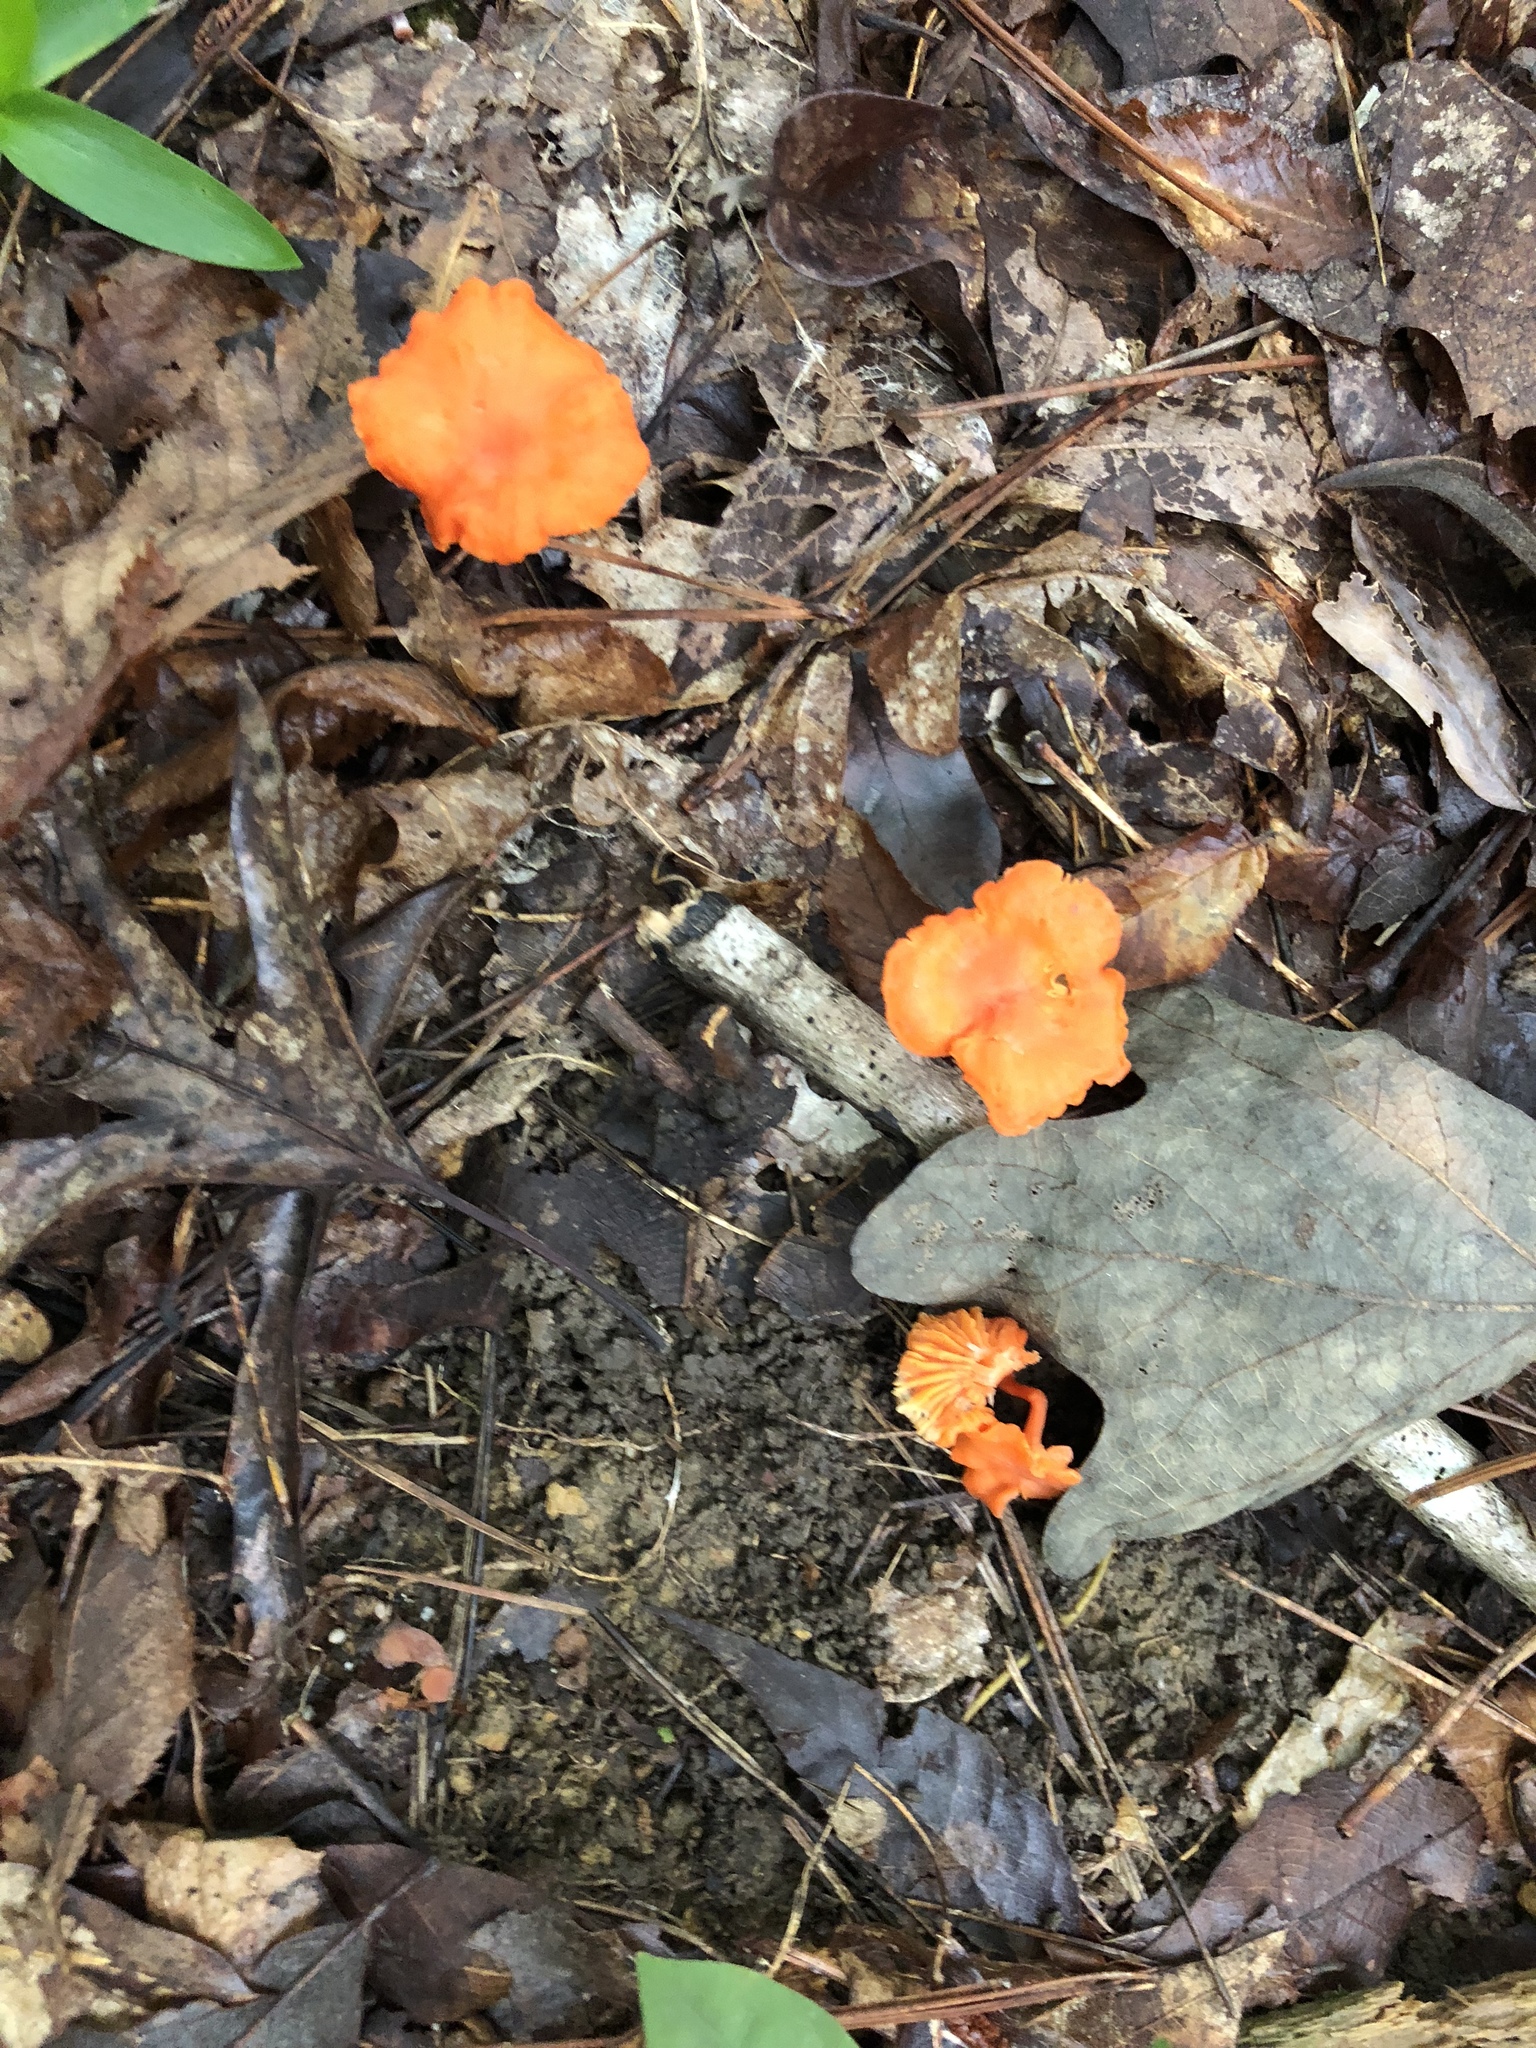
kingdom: Fungi
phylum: Basidiomycota
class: Agaricomycetes
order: Cantharellales
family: Hydnaceae
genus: Cantharellus
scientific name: Cantharellus cinnabarinus
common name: Cinnabar chanterelle
